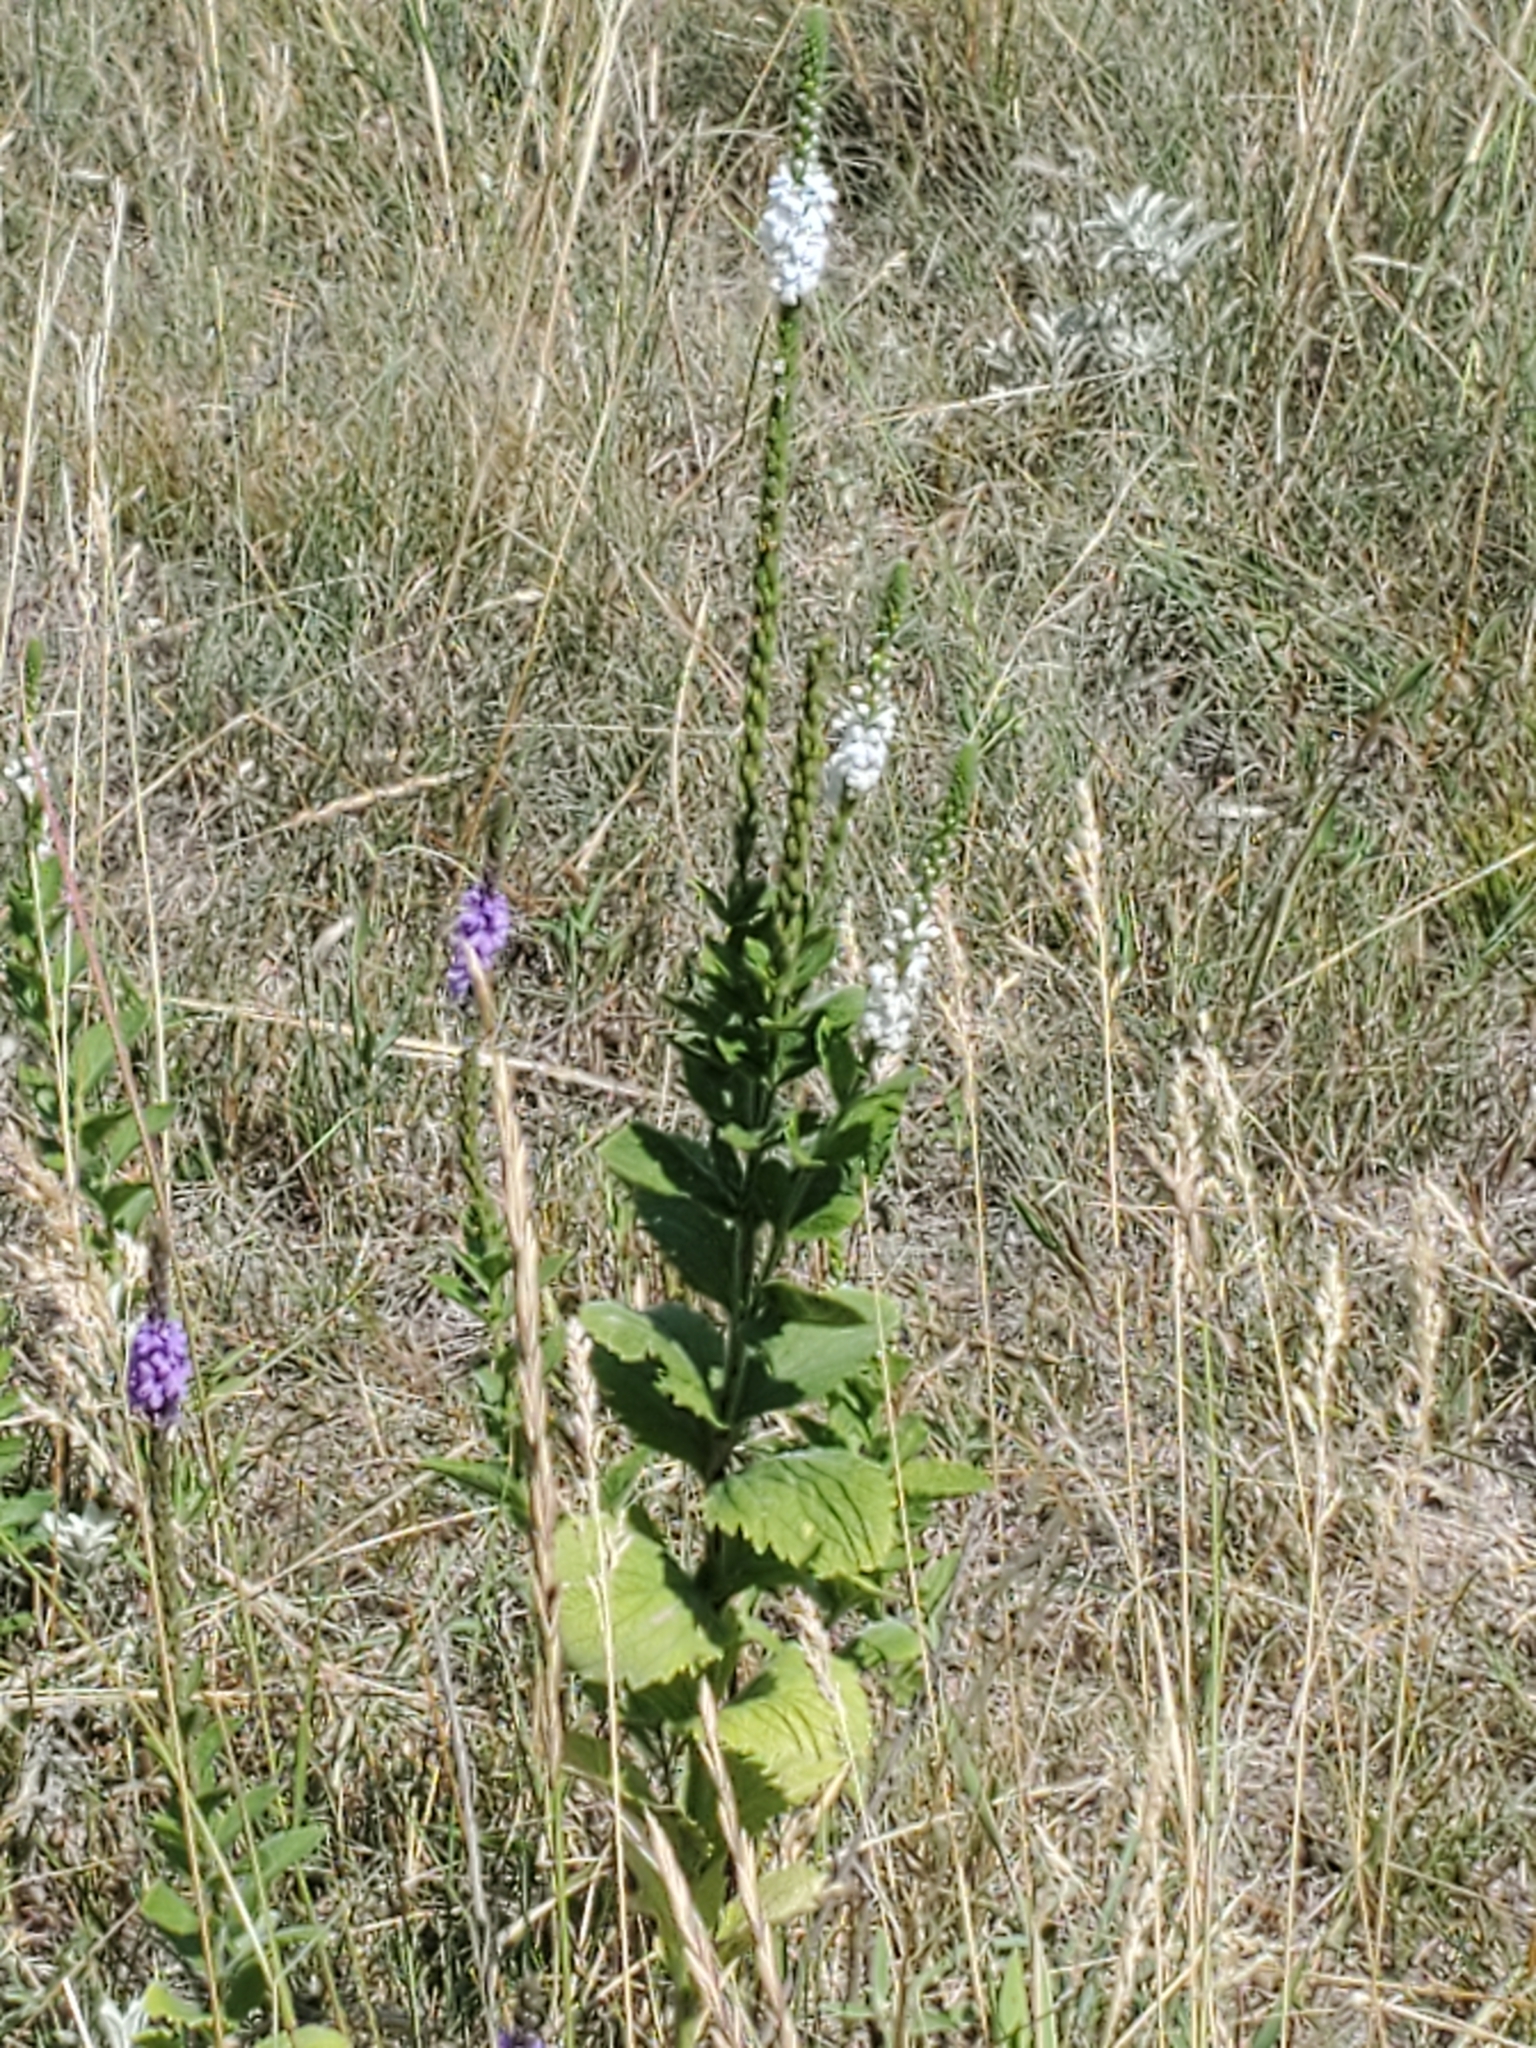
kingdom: Plantae
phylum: Tracheophyta
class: Magnoliopsida
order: Lamiales
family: Verbenaceae
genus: Verbena
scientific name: Verbena stricta
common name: Hoary vervain
